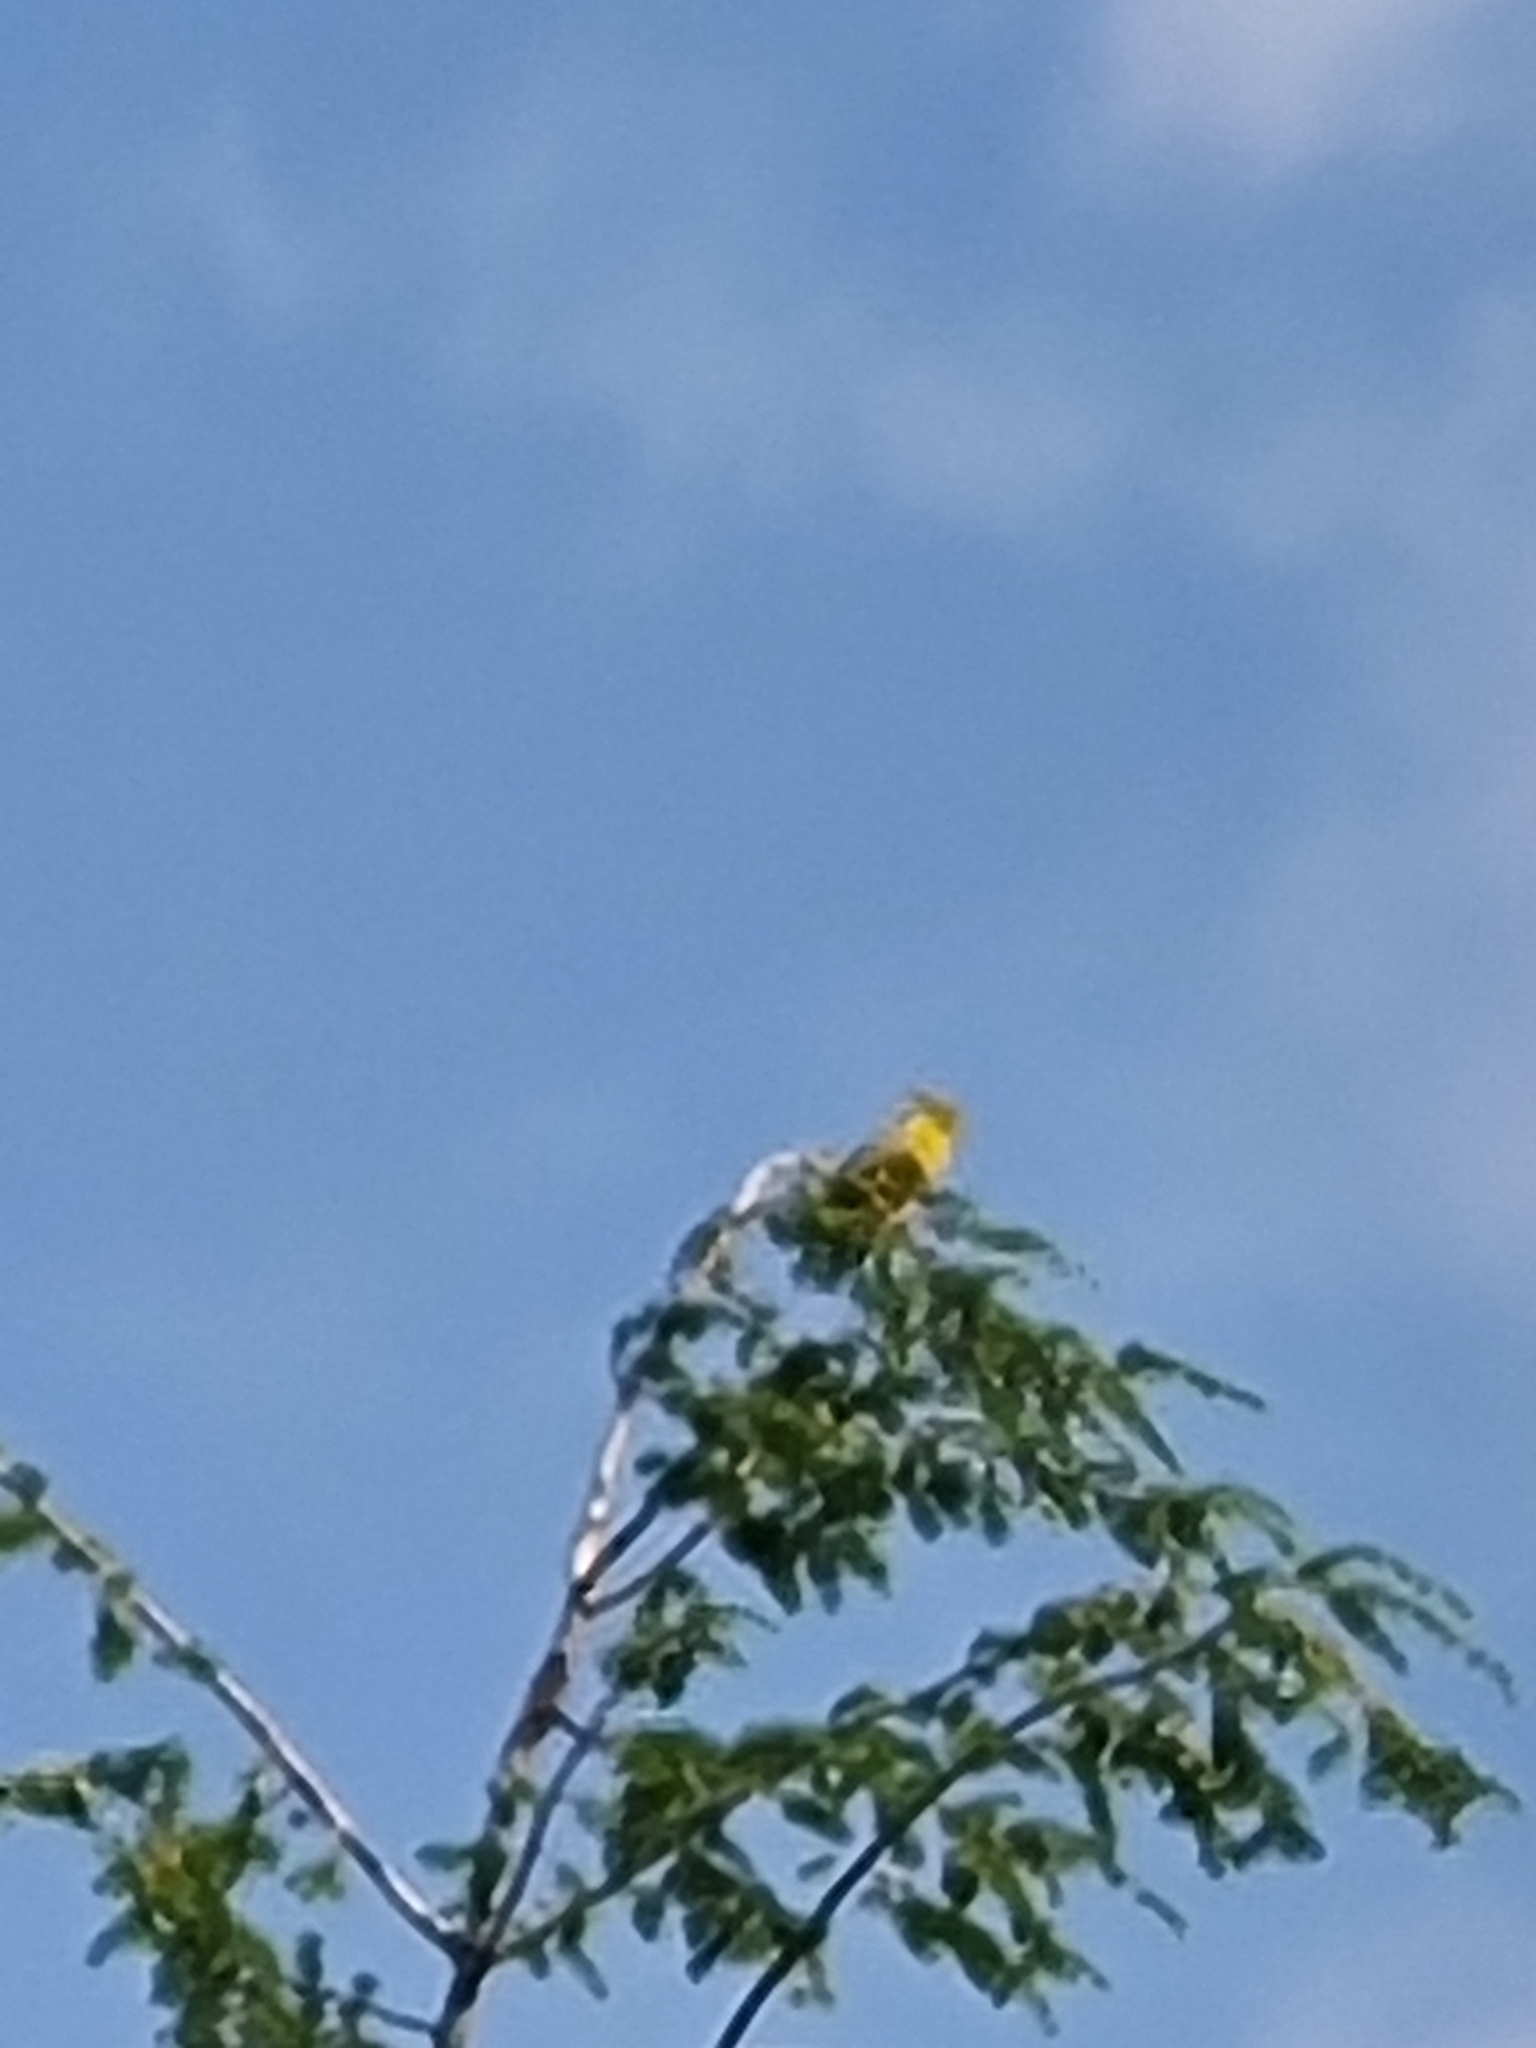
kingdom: Plantae
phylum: Tracheophyta
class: Liliopsida
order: Poales
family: Poaceae
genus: Chloris
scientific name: Chloris chloris
